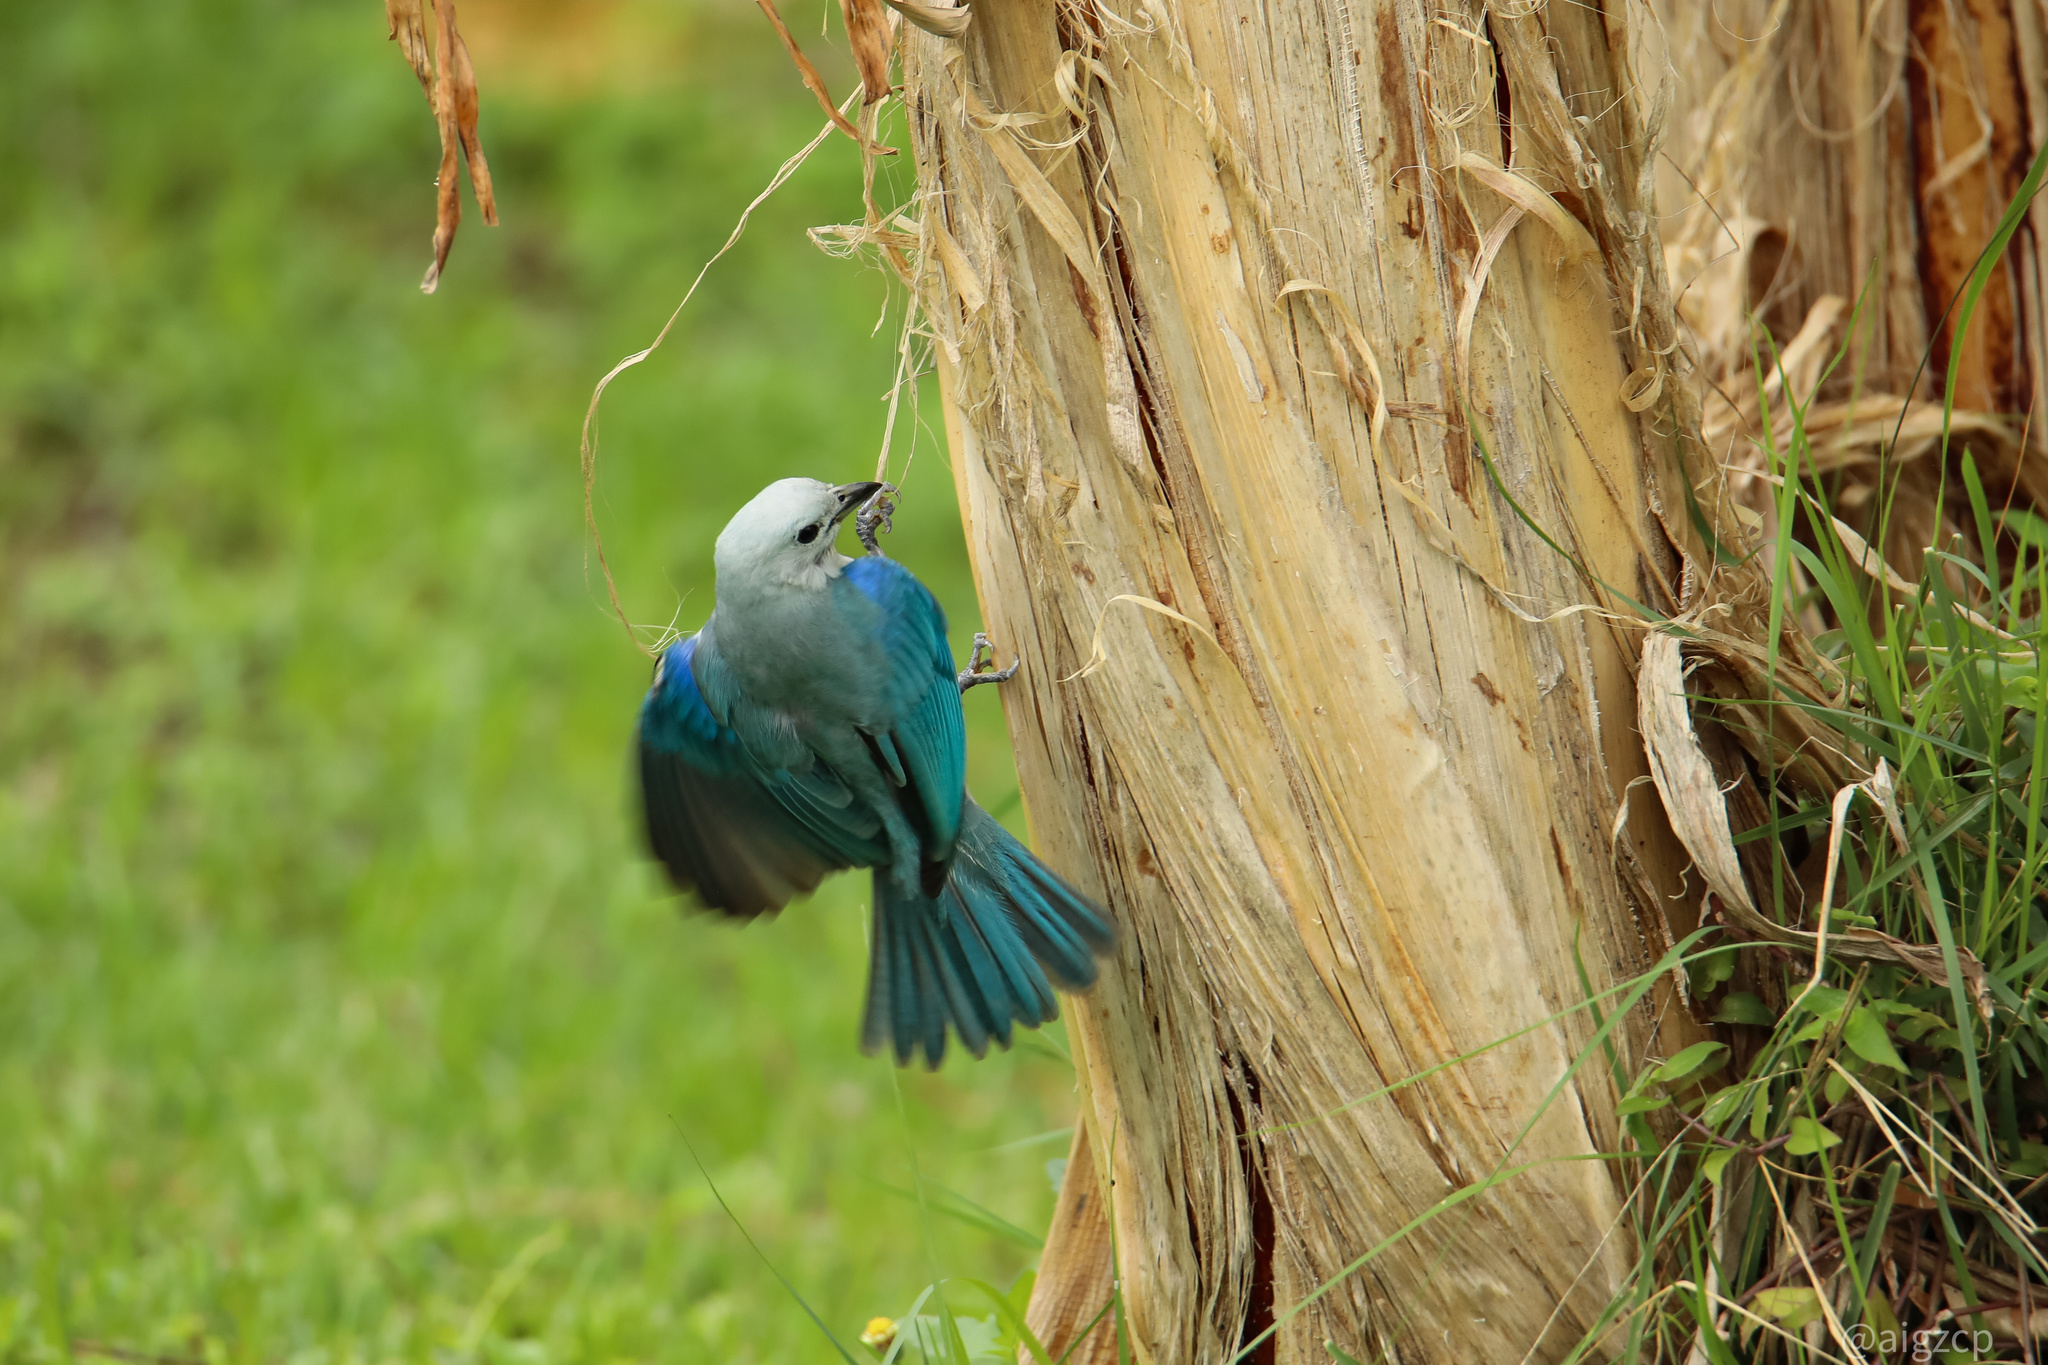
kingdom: Animalia
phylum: Chordata
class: Aves
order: Passeriformes
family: Thraupidae
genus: Thraupis
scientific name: Thraupis episcopus
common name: Blue-grey tanager
